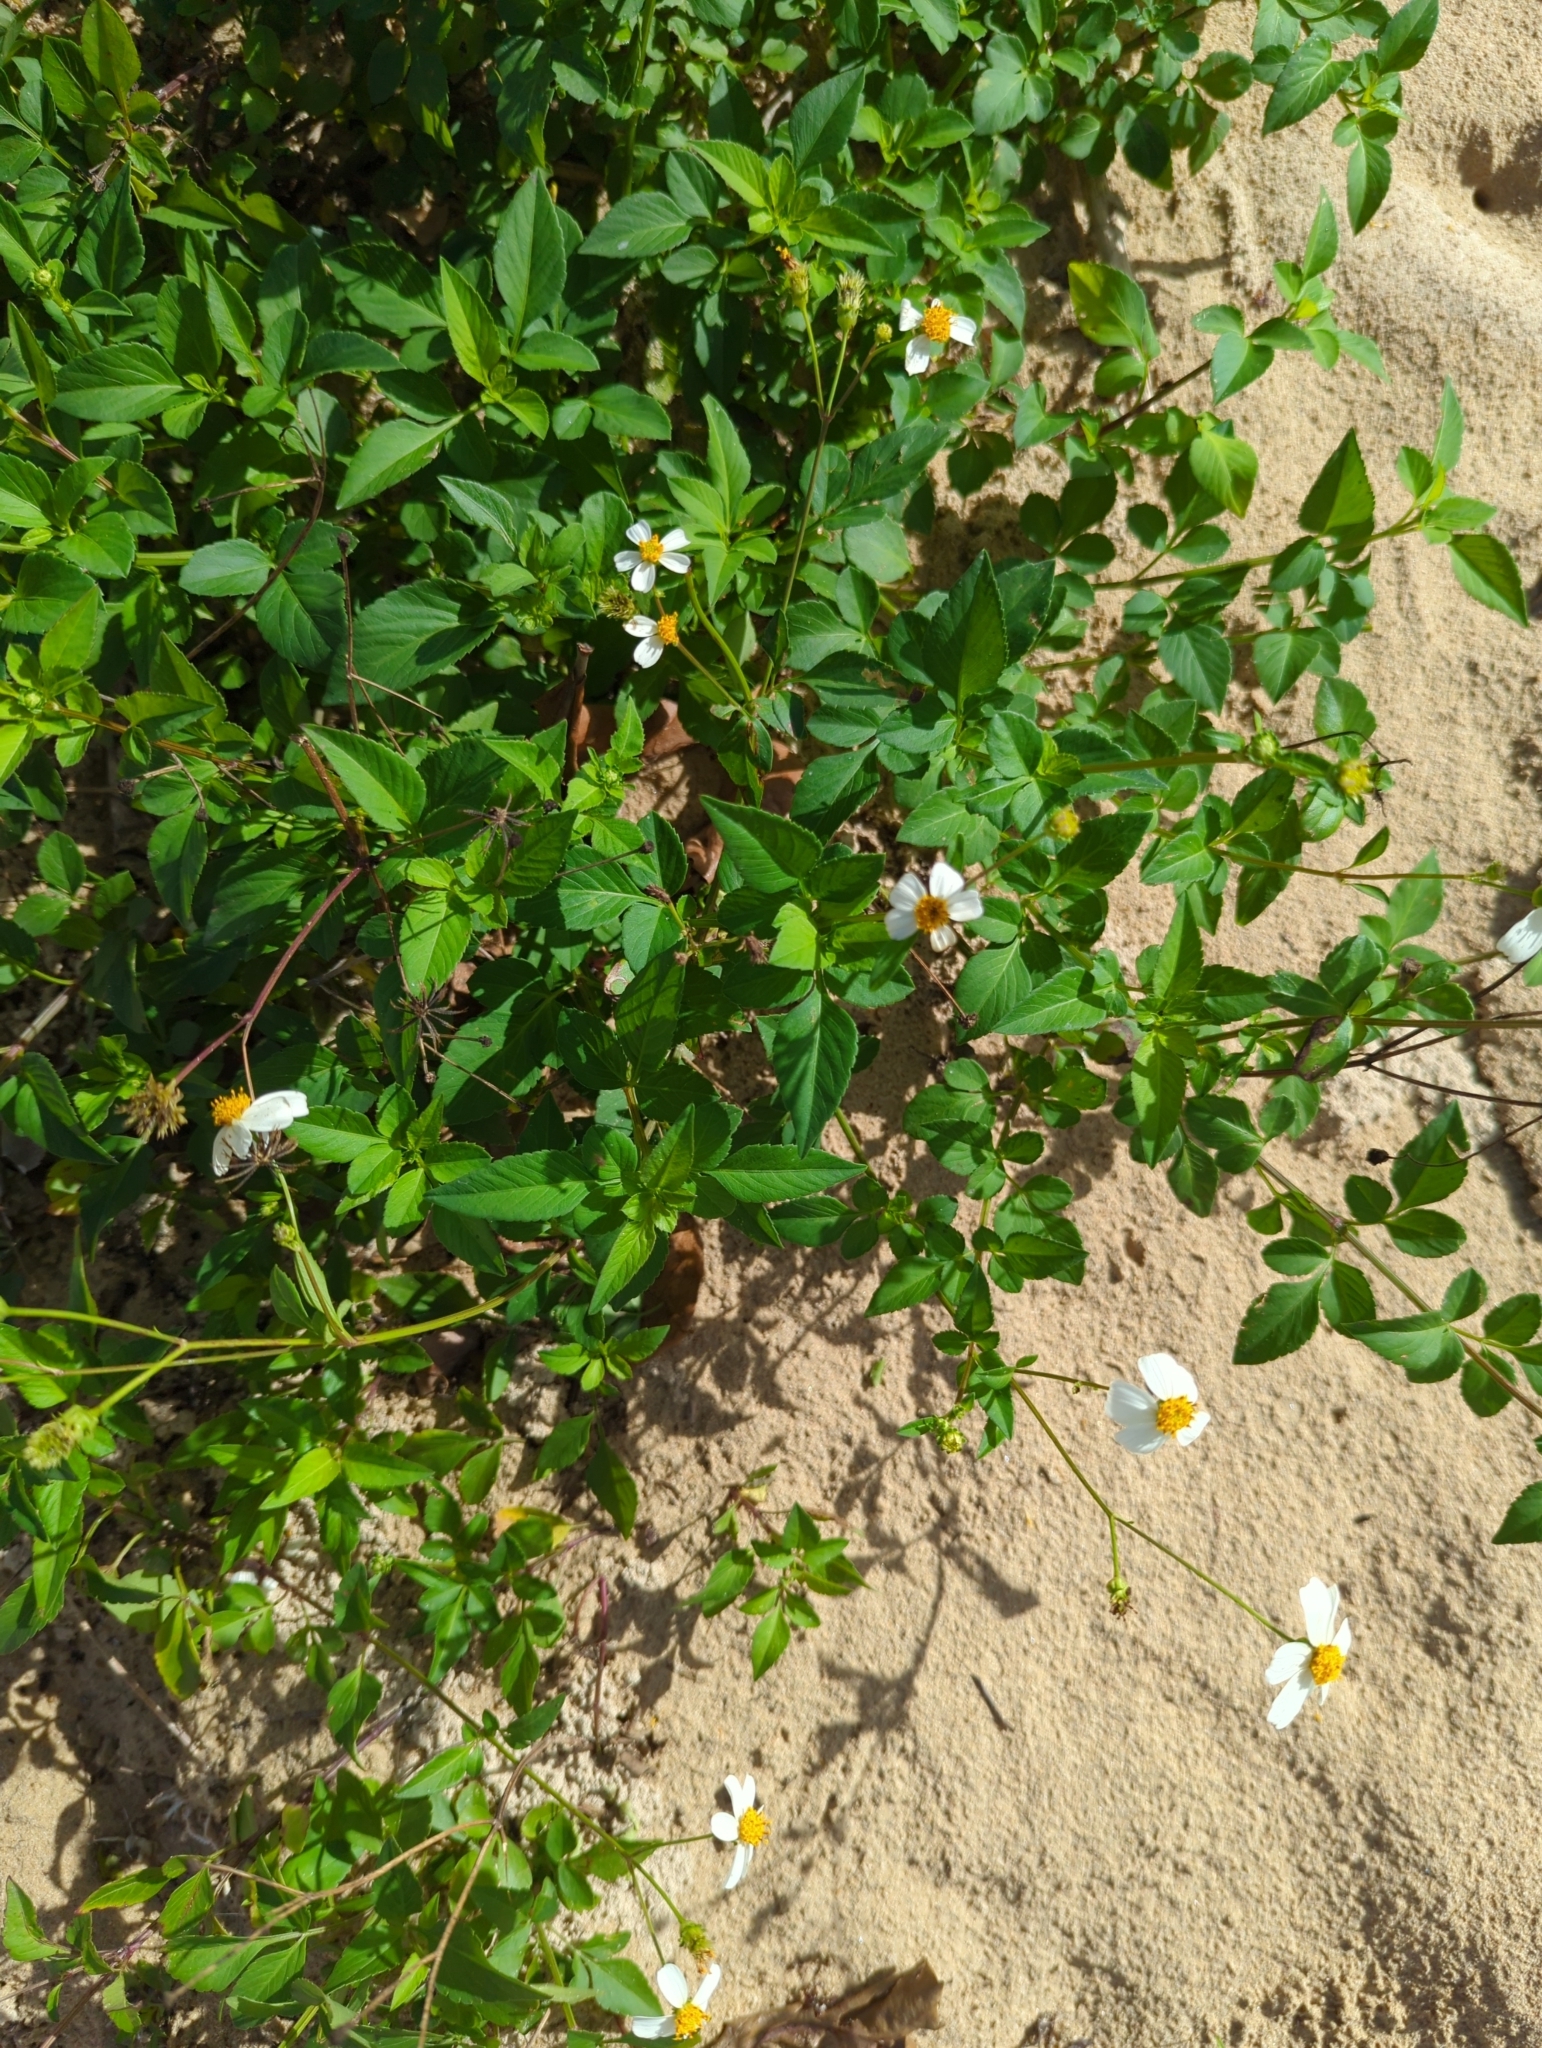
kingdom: Plantae
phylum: Tracheophyta
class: Magnoliopsida
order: Asterales
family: Asteraceae
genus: Bidens
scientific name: Bidens alba
